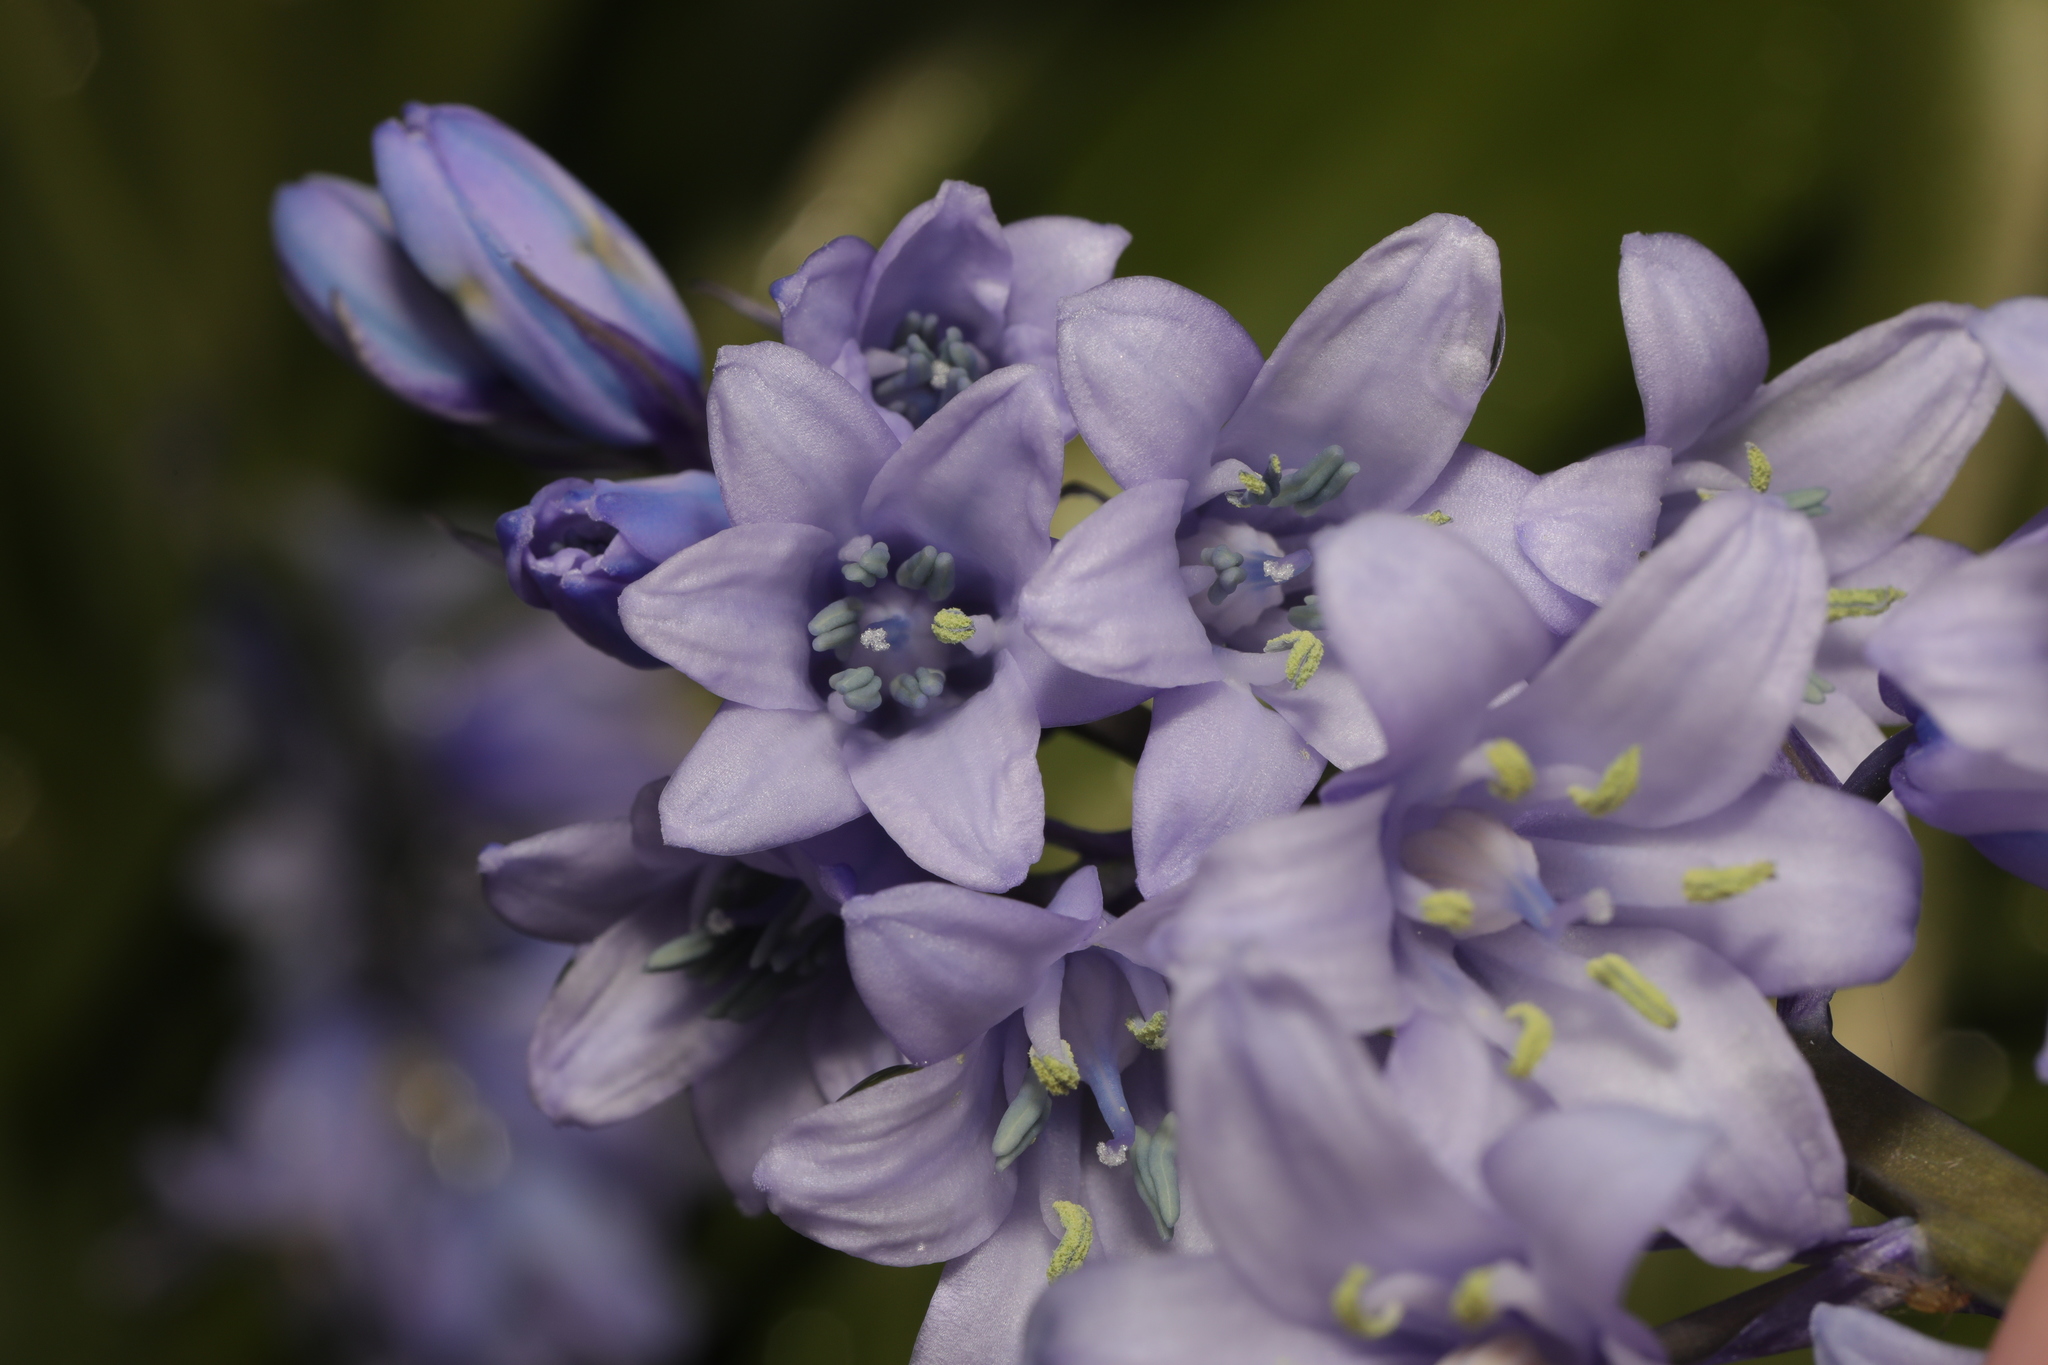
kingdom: Plantae
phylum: Tracheophyta
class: Liliopsida
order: Asparagales
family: Asparagaceae
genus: Hyacinthoides
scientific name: Hyacinthoides hispanica
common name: Spanish bluebell
